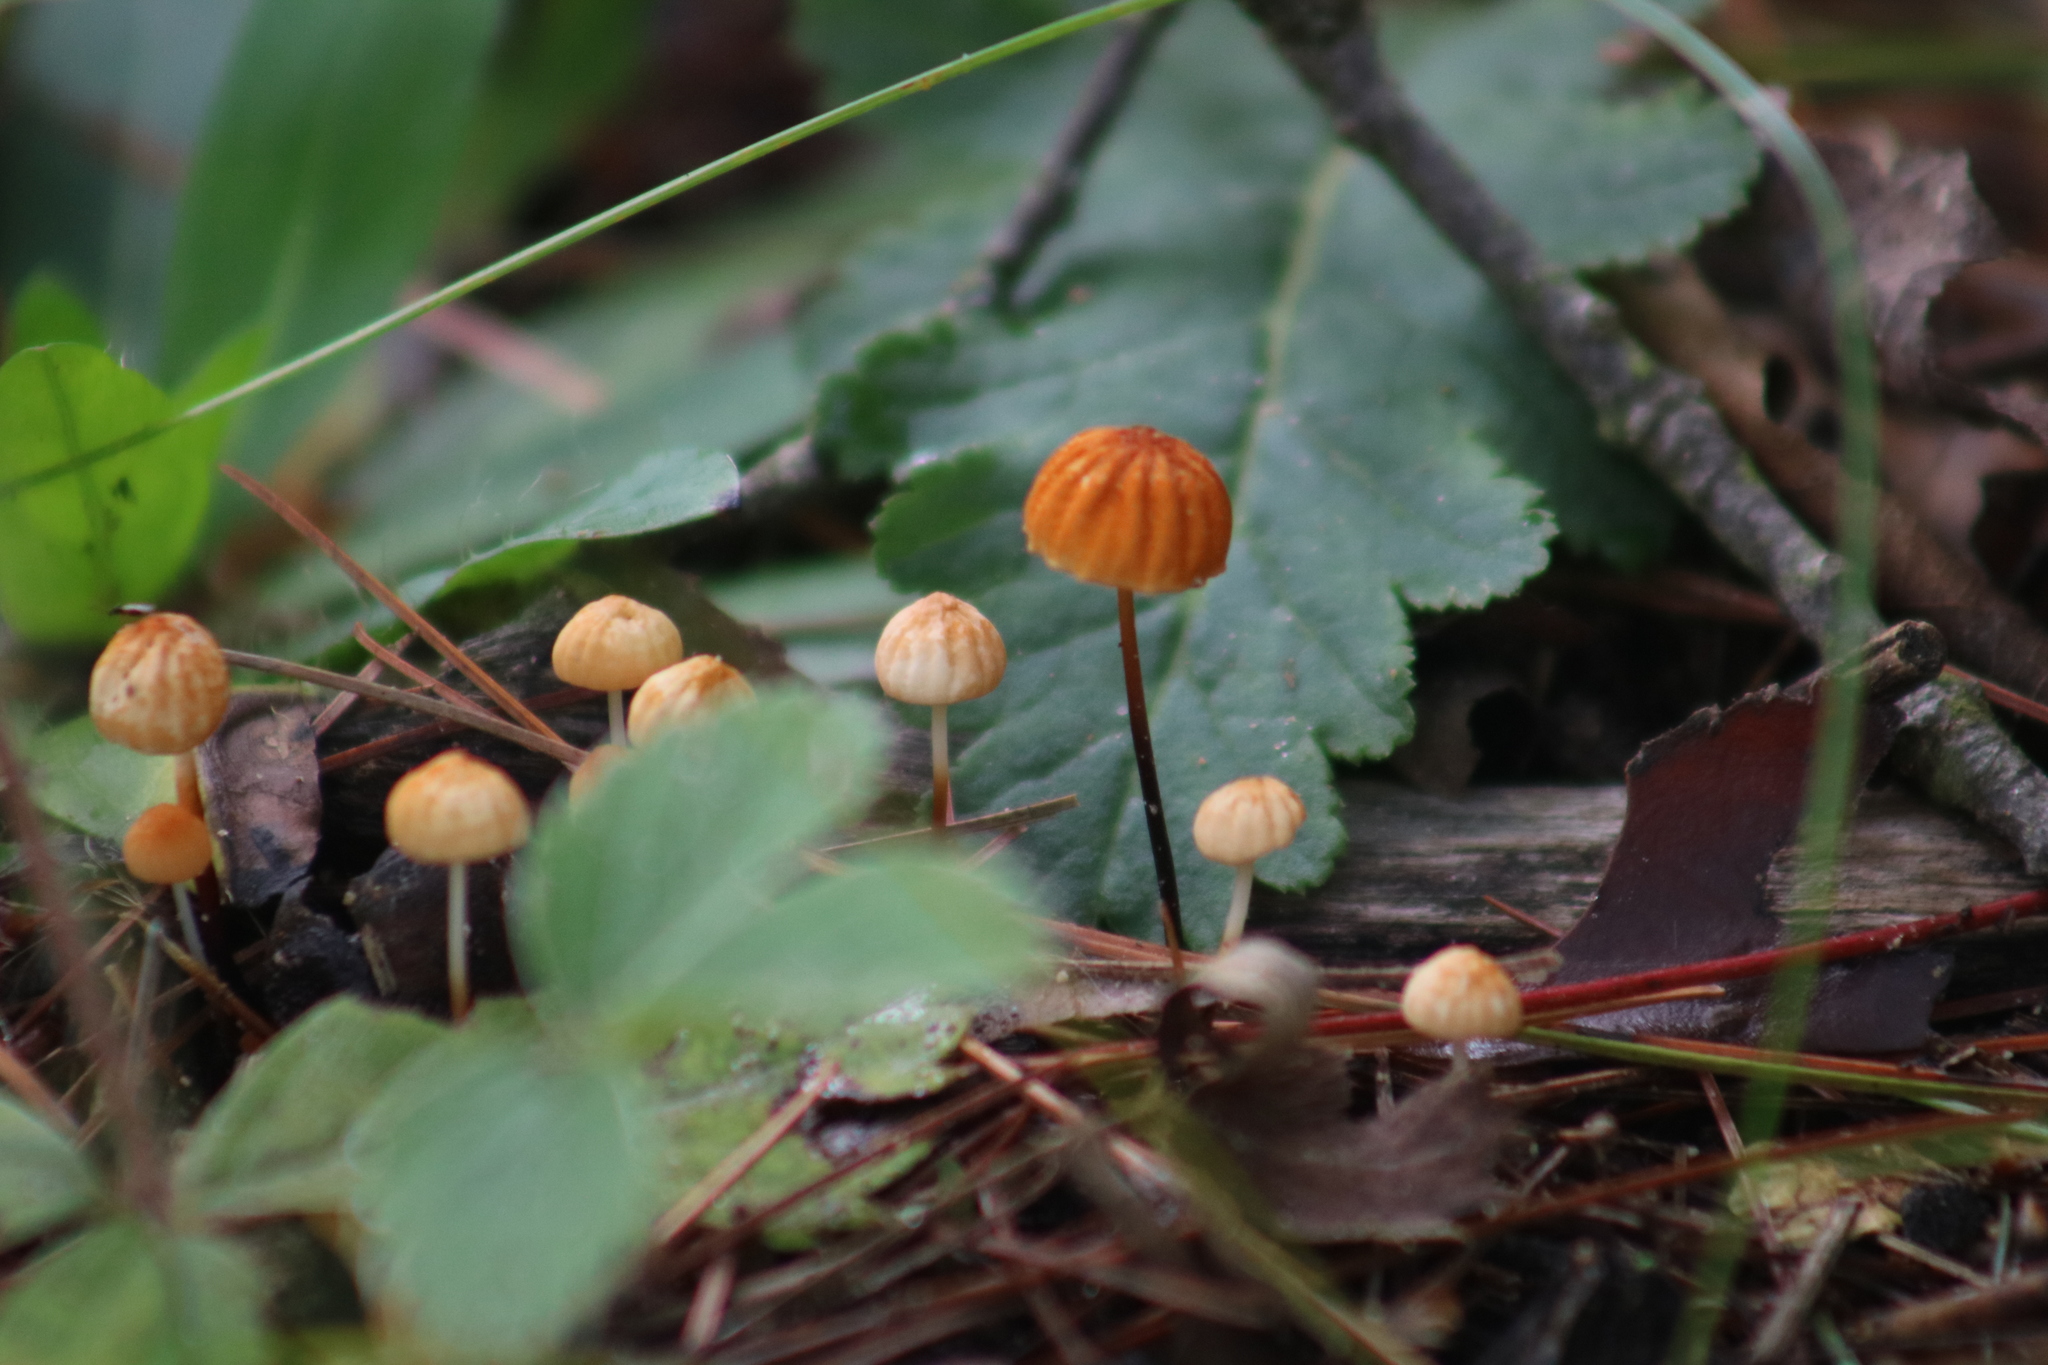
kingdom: Fungi
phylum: Basidiomycota
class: Agaricomycetes
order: Agaricales
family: Marasmiaceae
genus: Marasmius
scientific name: Marasmius siccus
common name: Orange pinwheel
